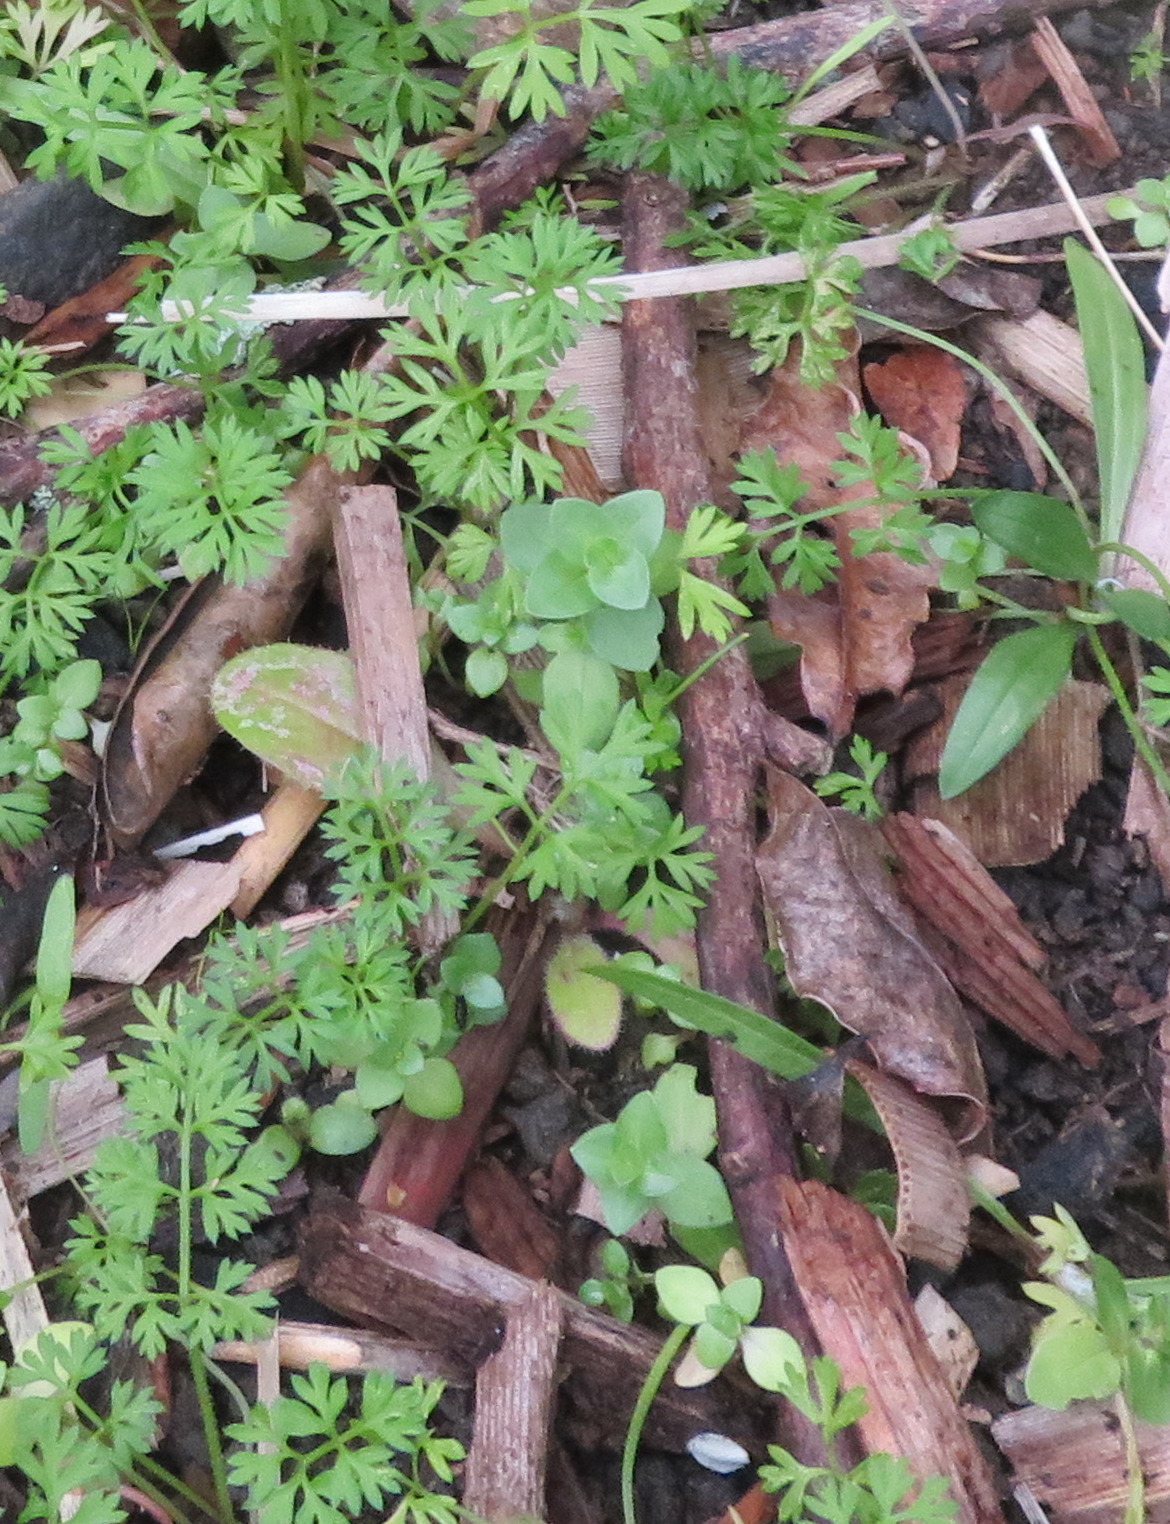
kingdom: Plantae
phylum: Tracheophyta
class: Magnoliopsida
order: Ericales
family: Primulaceae
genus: Lysimachia
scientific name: Lysimachia arvensis
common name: Scarlet pimpernel
